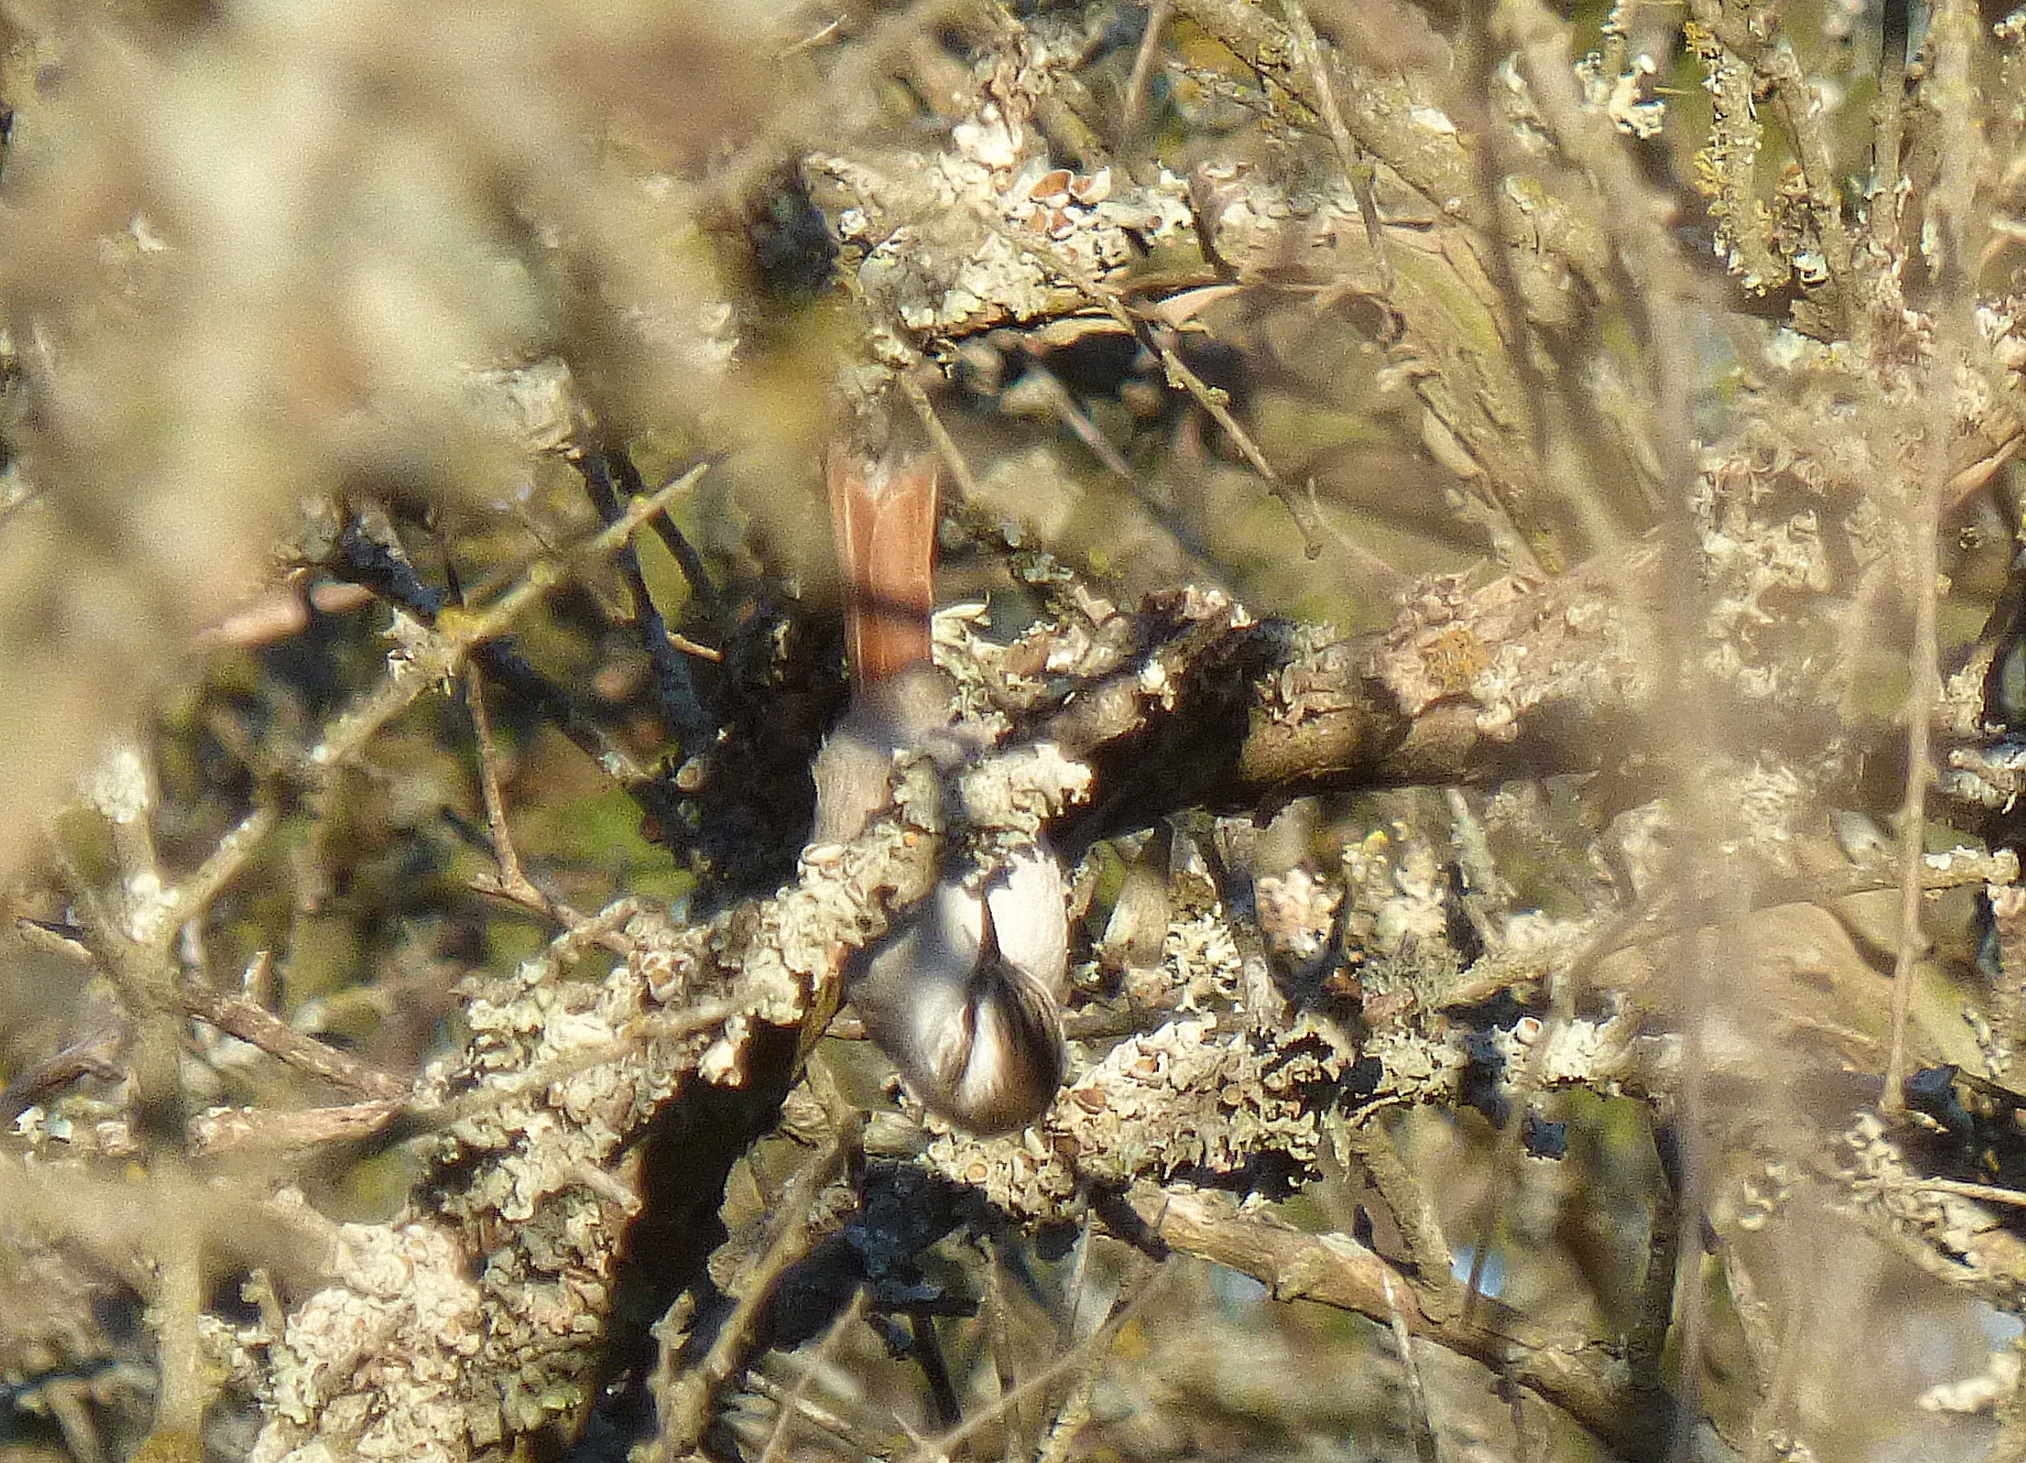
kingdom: Animalia
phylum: Chordata
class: Aves
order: Passeriformes
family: Furnariidae
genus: Cranioleuca
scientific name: Cranioleuca pyrrhophia
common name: Stripe-crowned spinetail
